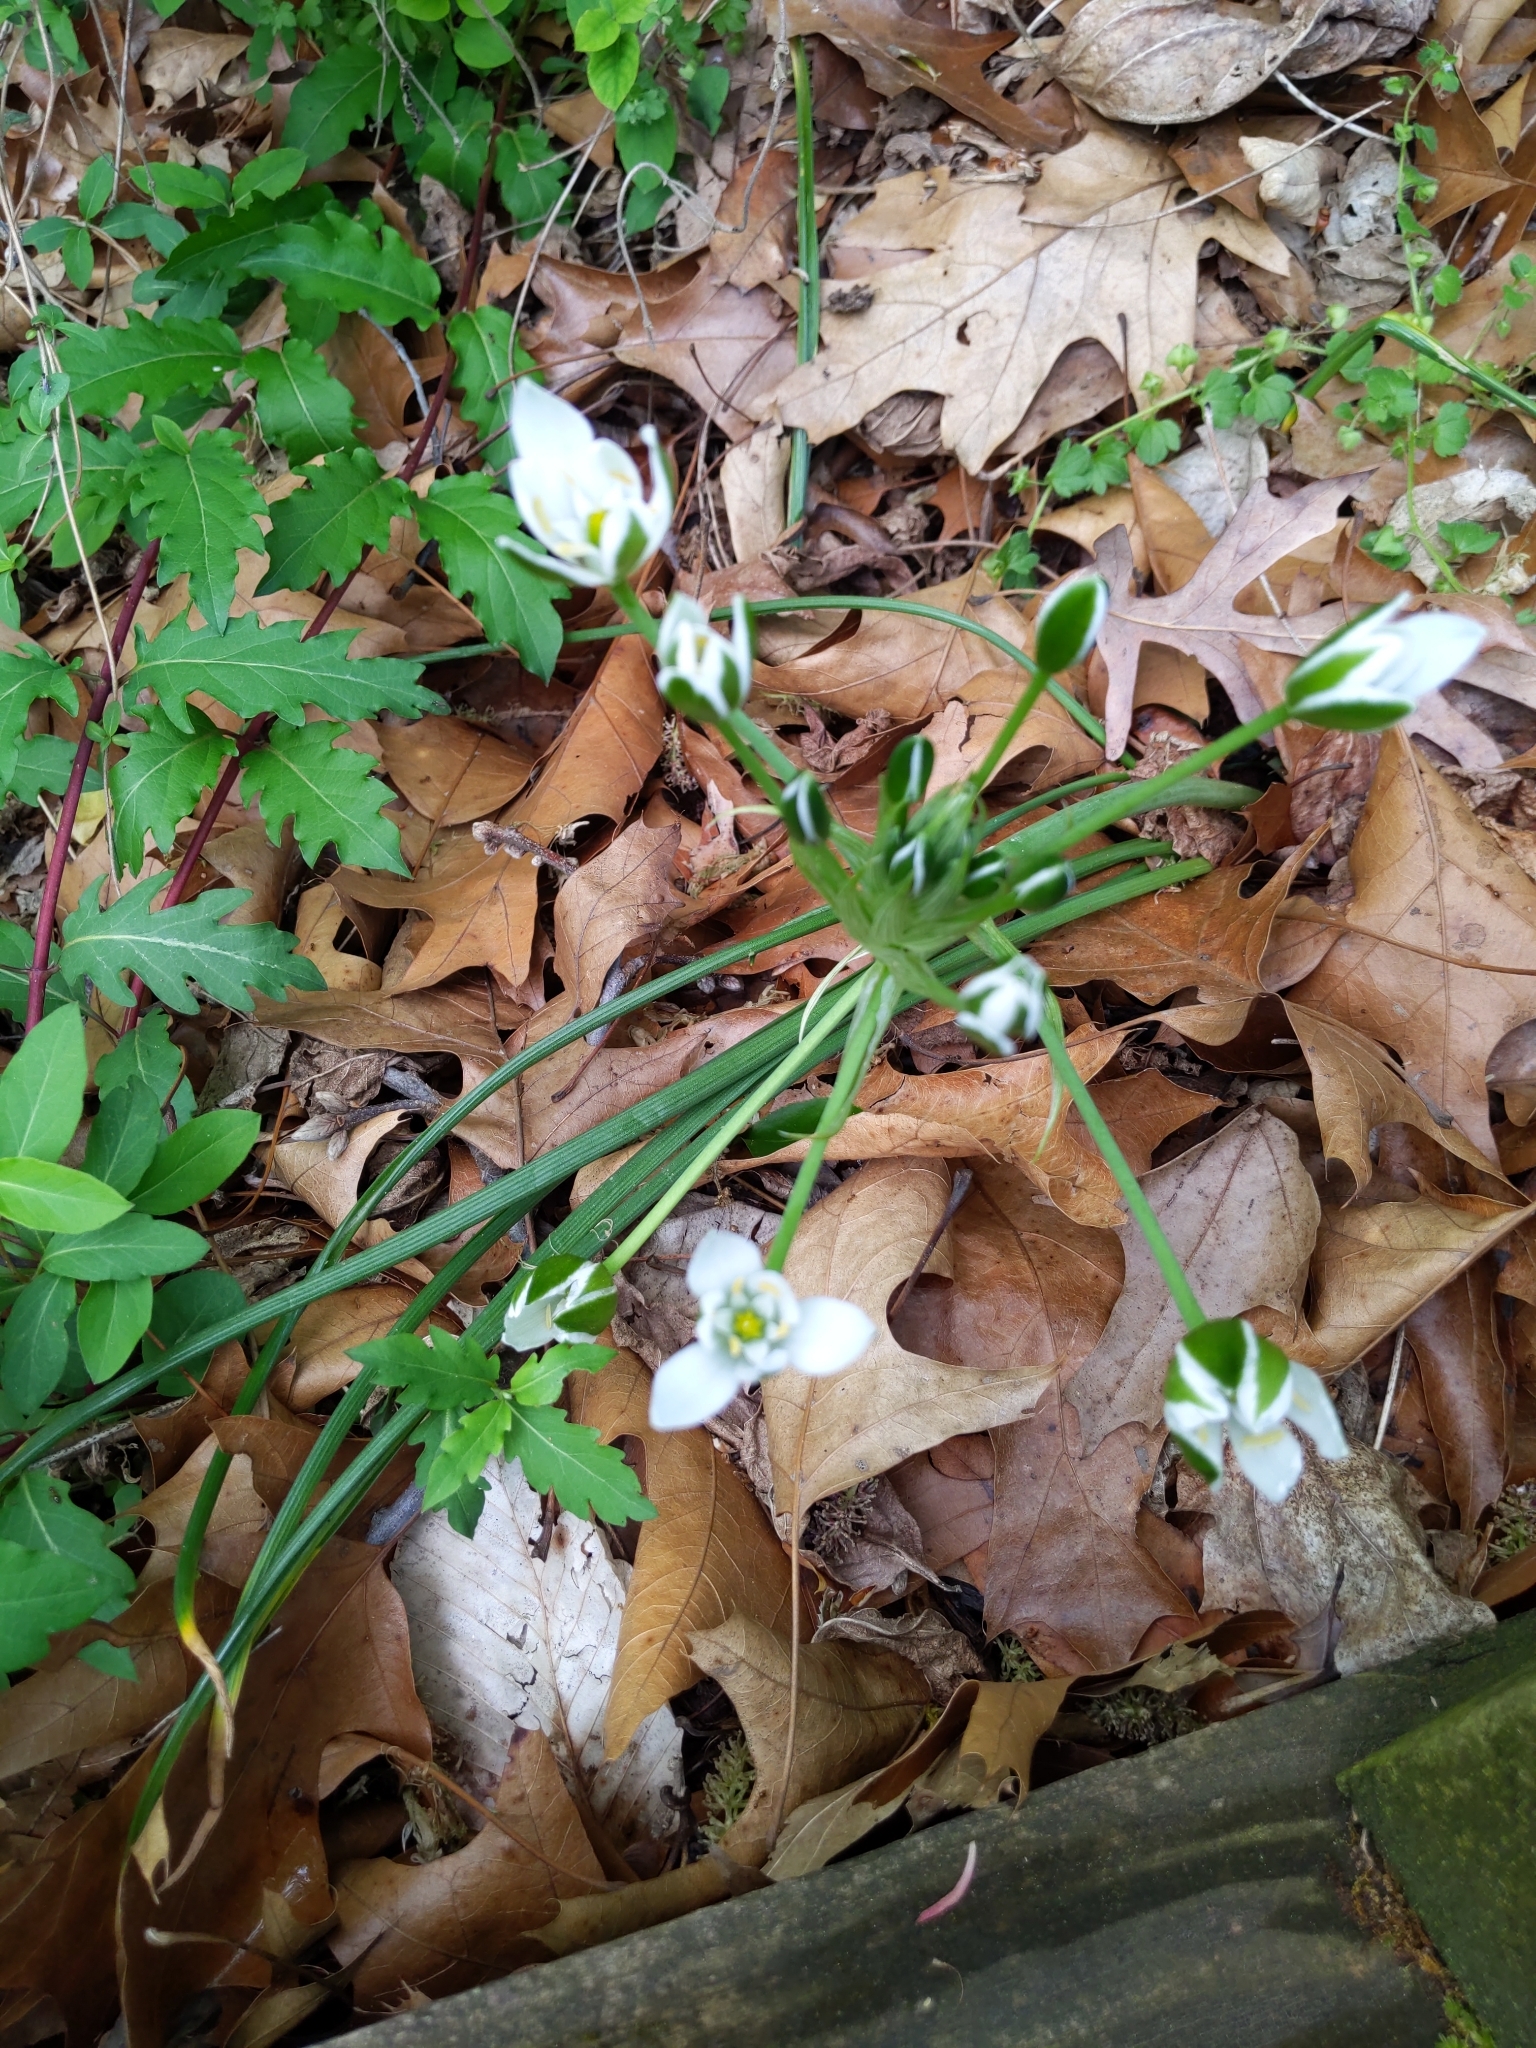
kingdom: Plantae
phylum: Tracheophyta
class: Liliopsida
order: Asparagales
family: Asparagaceae
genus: Ornithogalum
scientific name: Ornithogalum umbellatum
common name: Garden star-of-bethlehem
